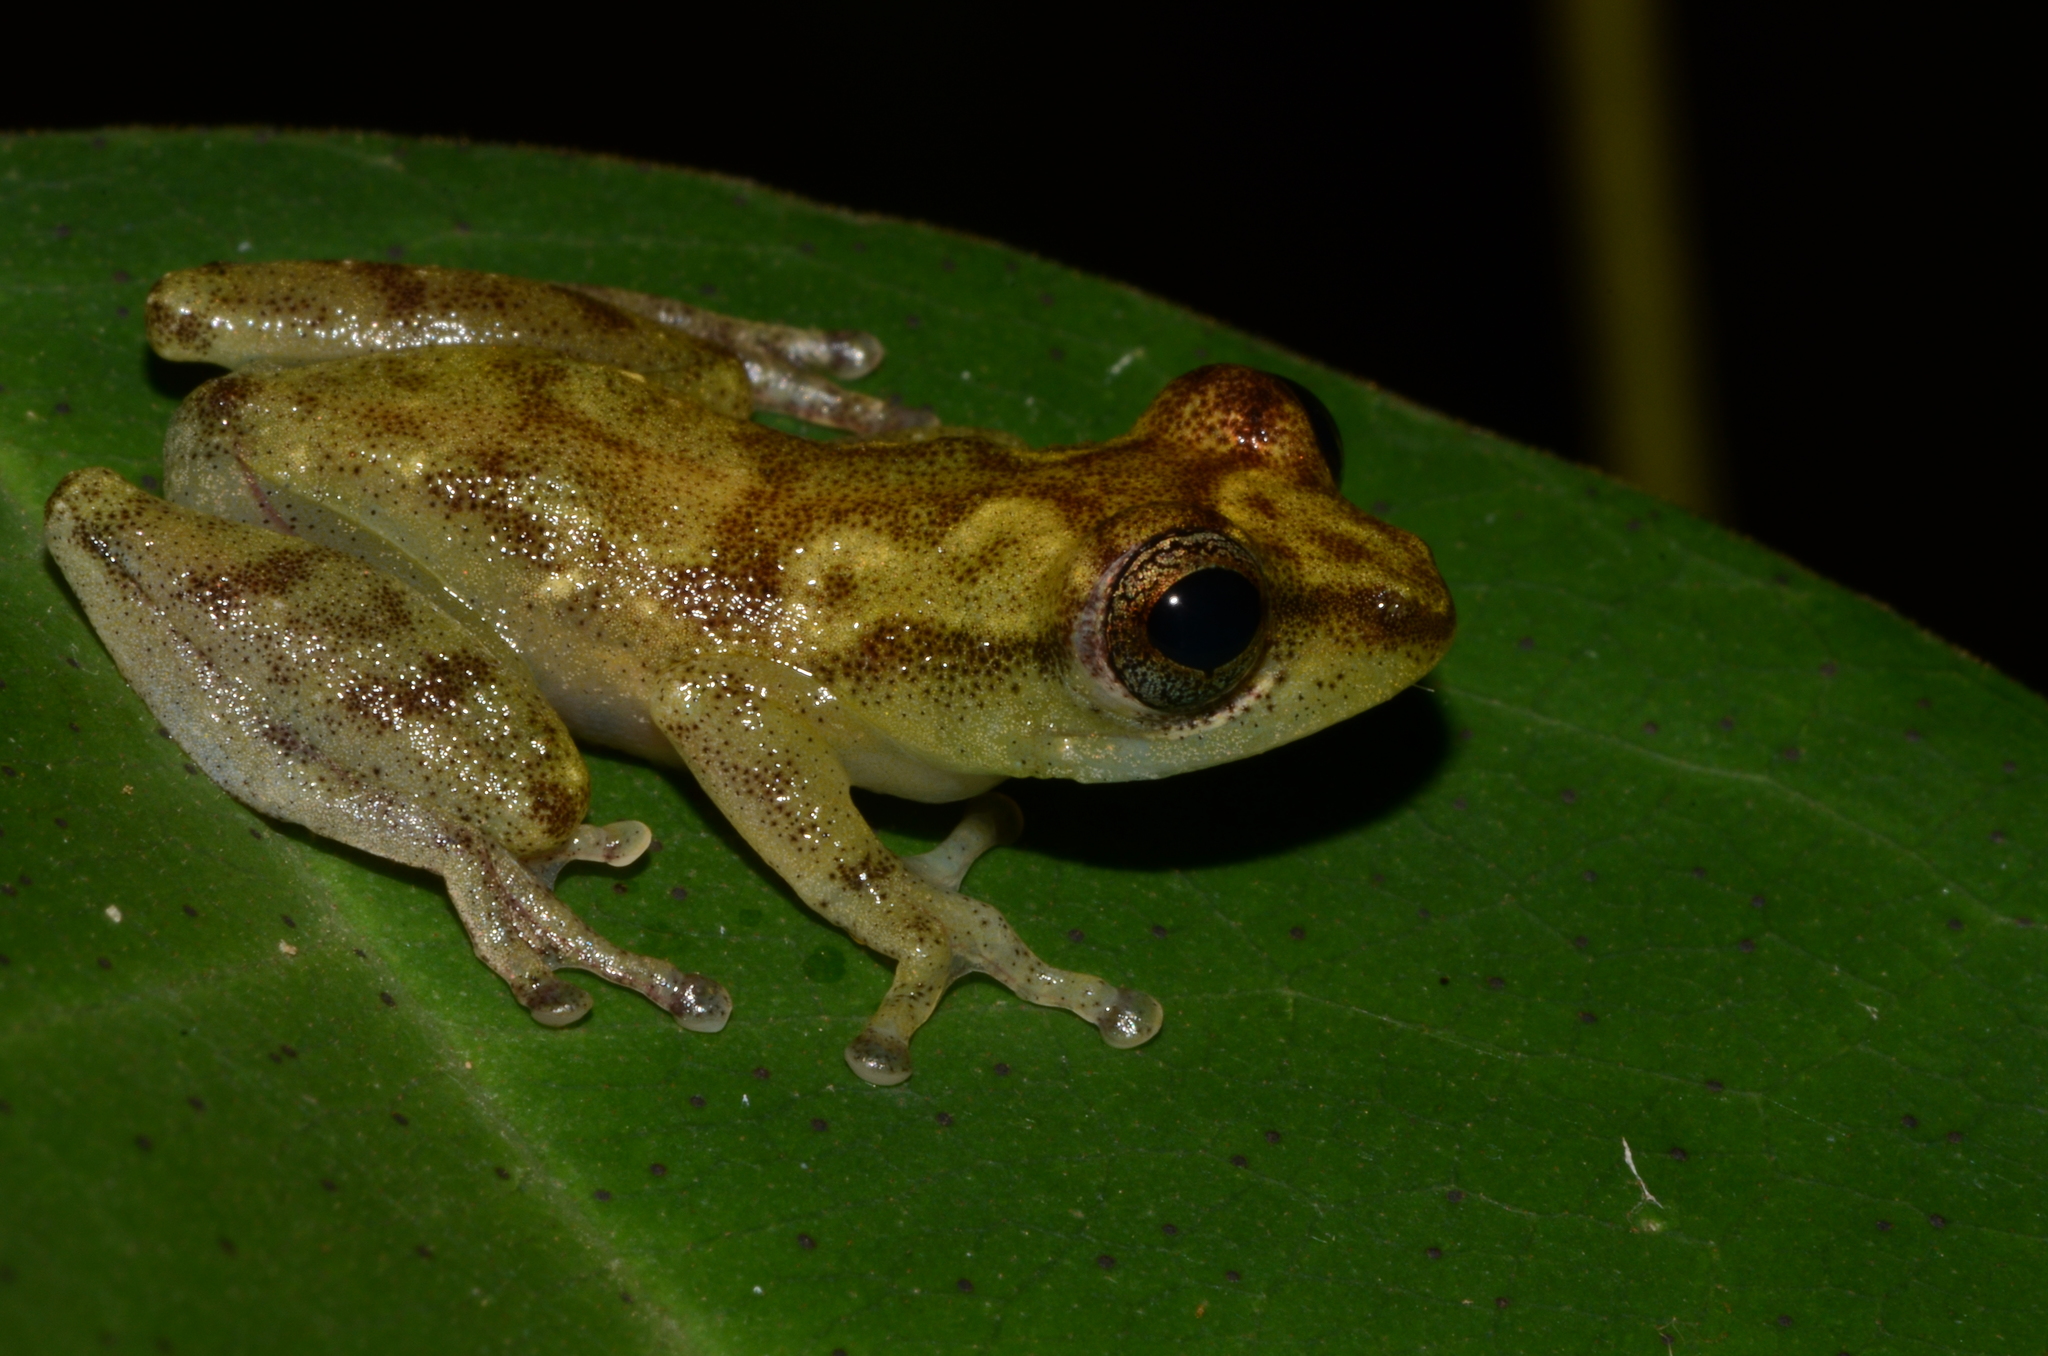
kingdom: Animalia
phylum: Chordata
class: Amphibia
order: Anura
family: Hyperoliidae
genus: Hyperolius
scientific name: Hyperolius kuligae
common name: Camp kivu reed frog
